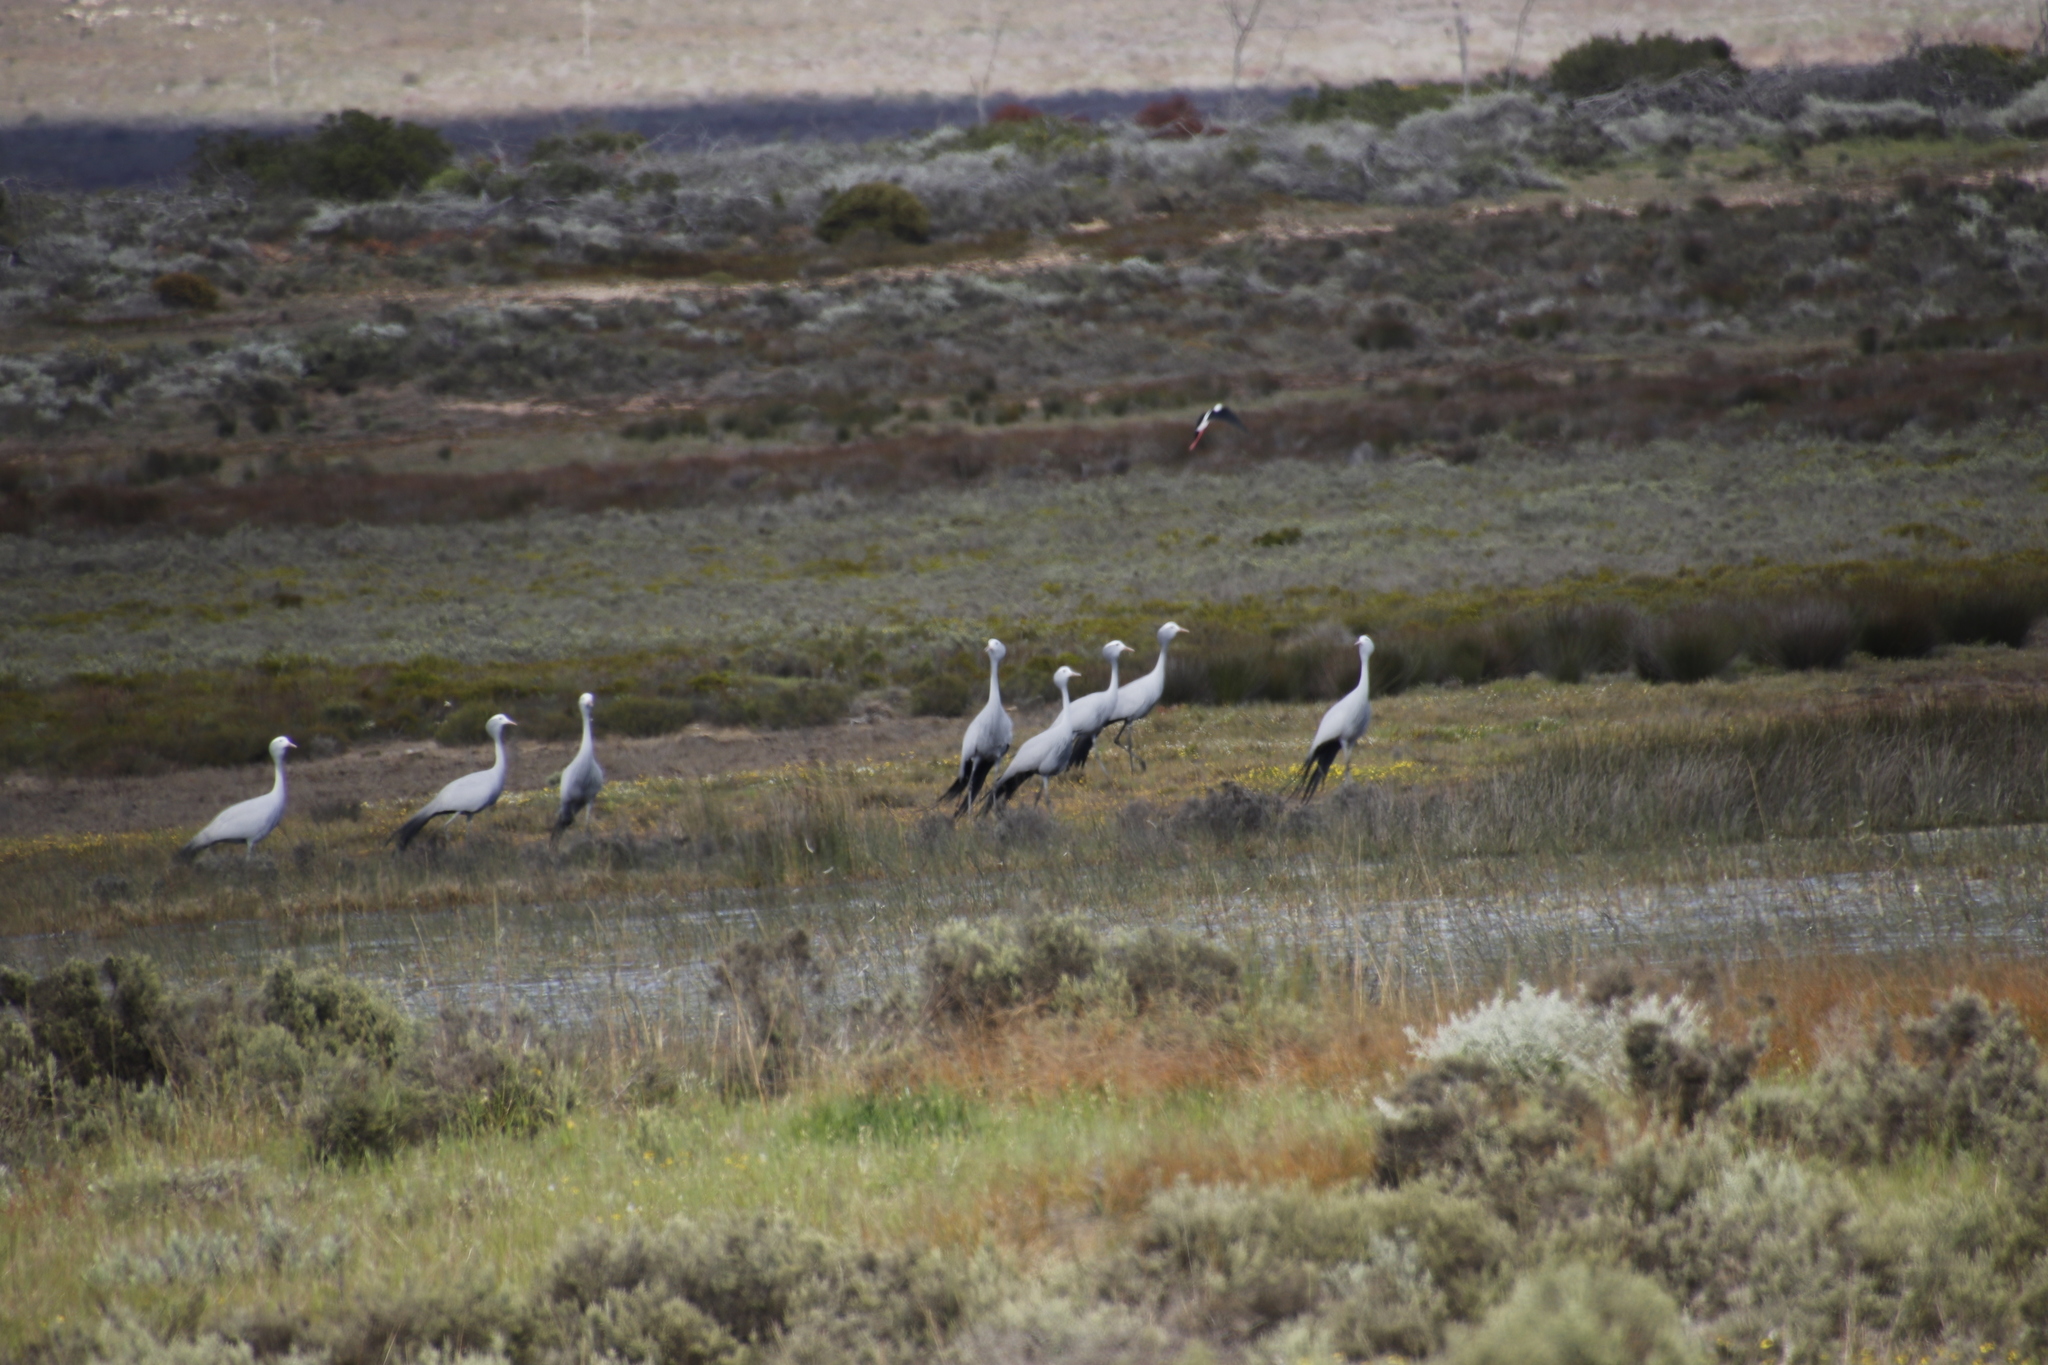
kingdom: Animalia
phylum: Chordata
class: Aves
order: Gruiformes
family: Gruidae
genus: Anthropoides
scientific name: Anthropoides paradiseus
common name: Blue crane
